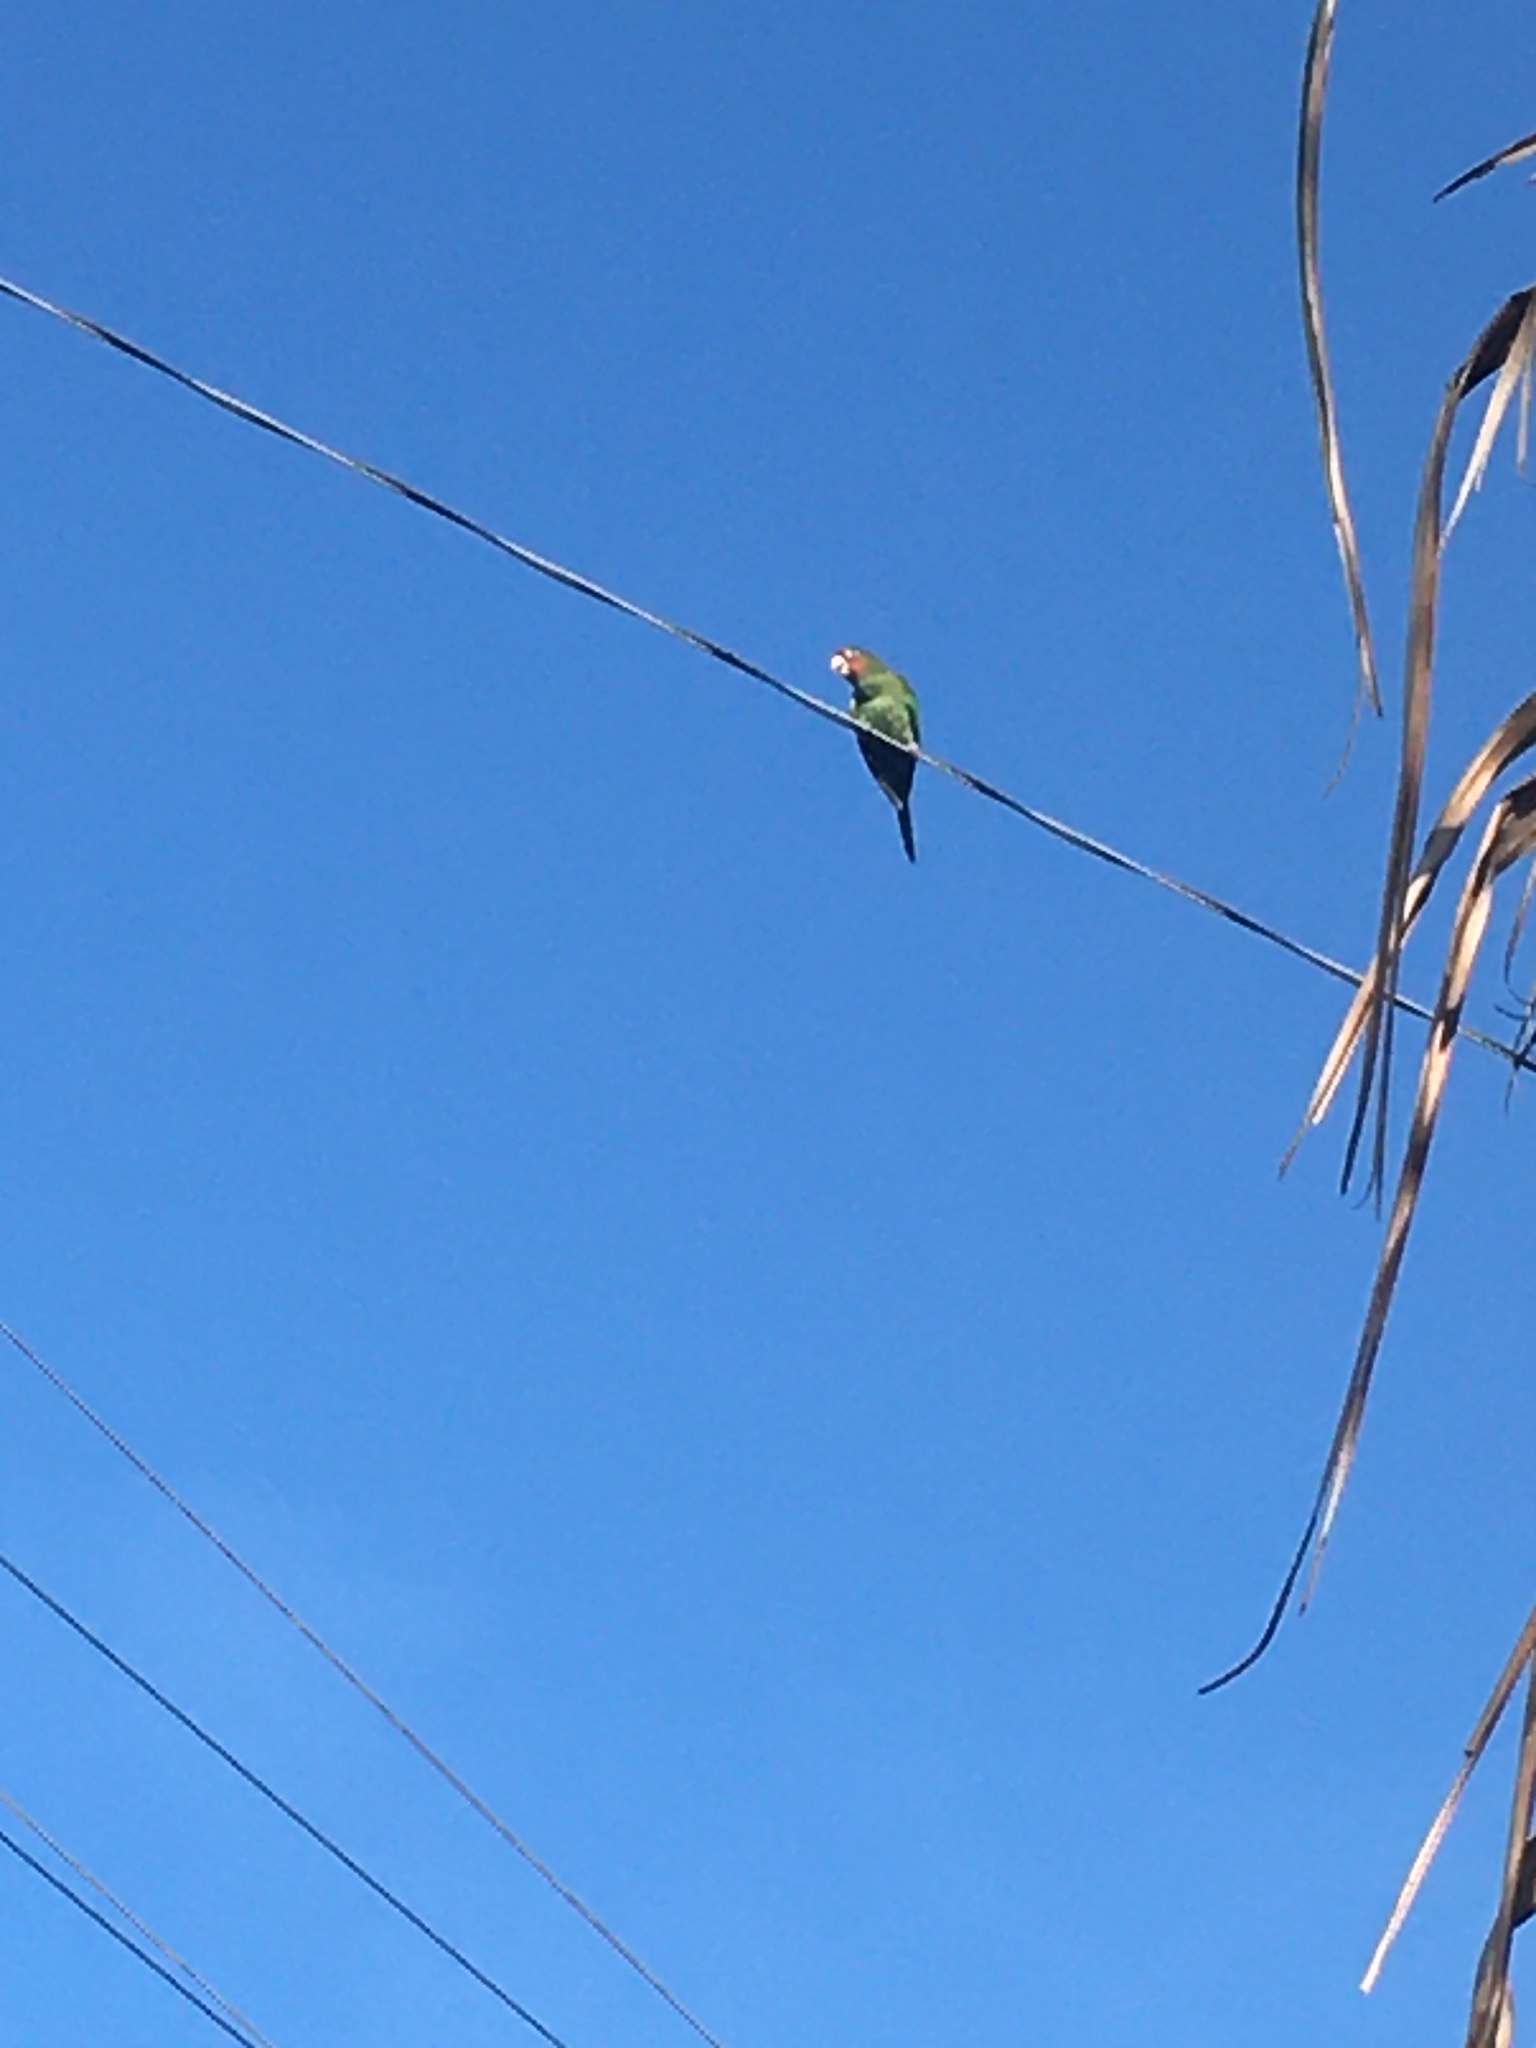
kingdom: Animalia
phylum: Chordata
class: Aves
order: Psittaciformes
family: Psittacidae
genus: Aratinga
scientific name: Aratinga mitrata
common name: Mitred parakeet
